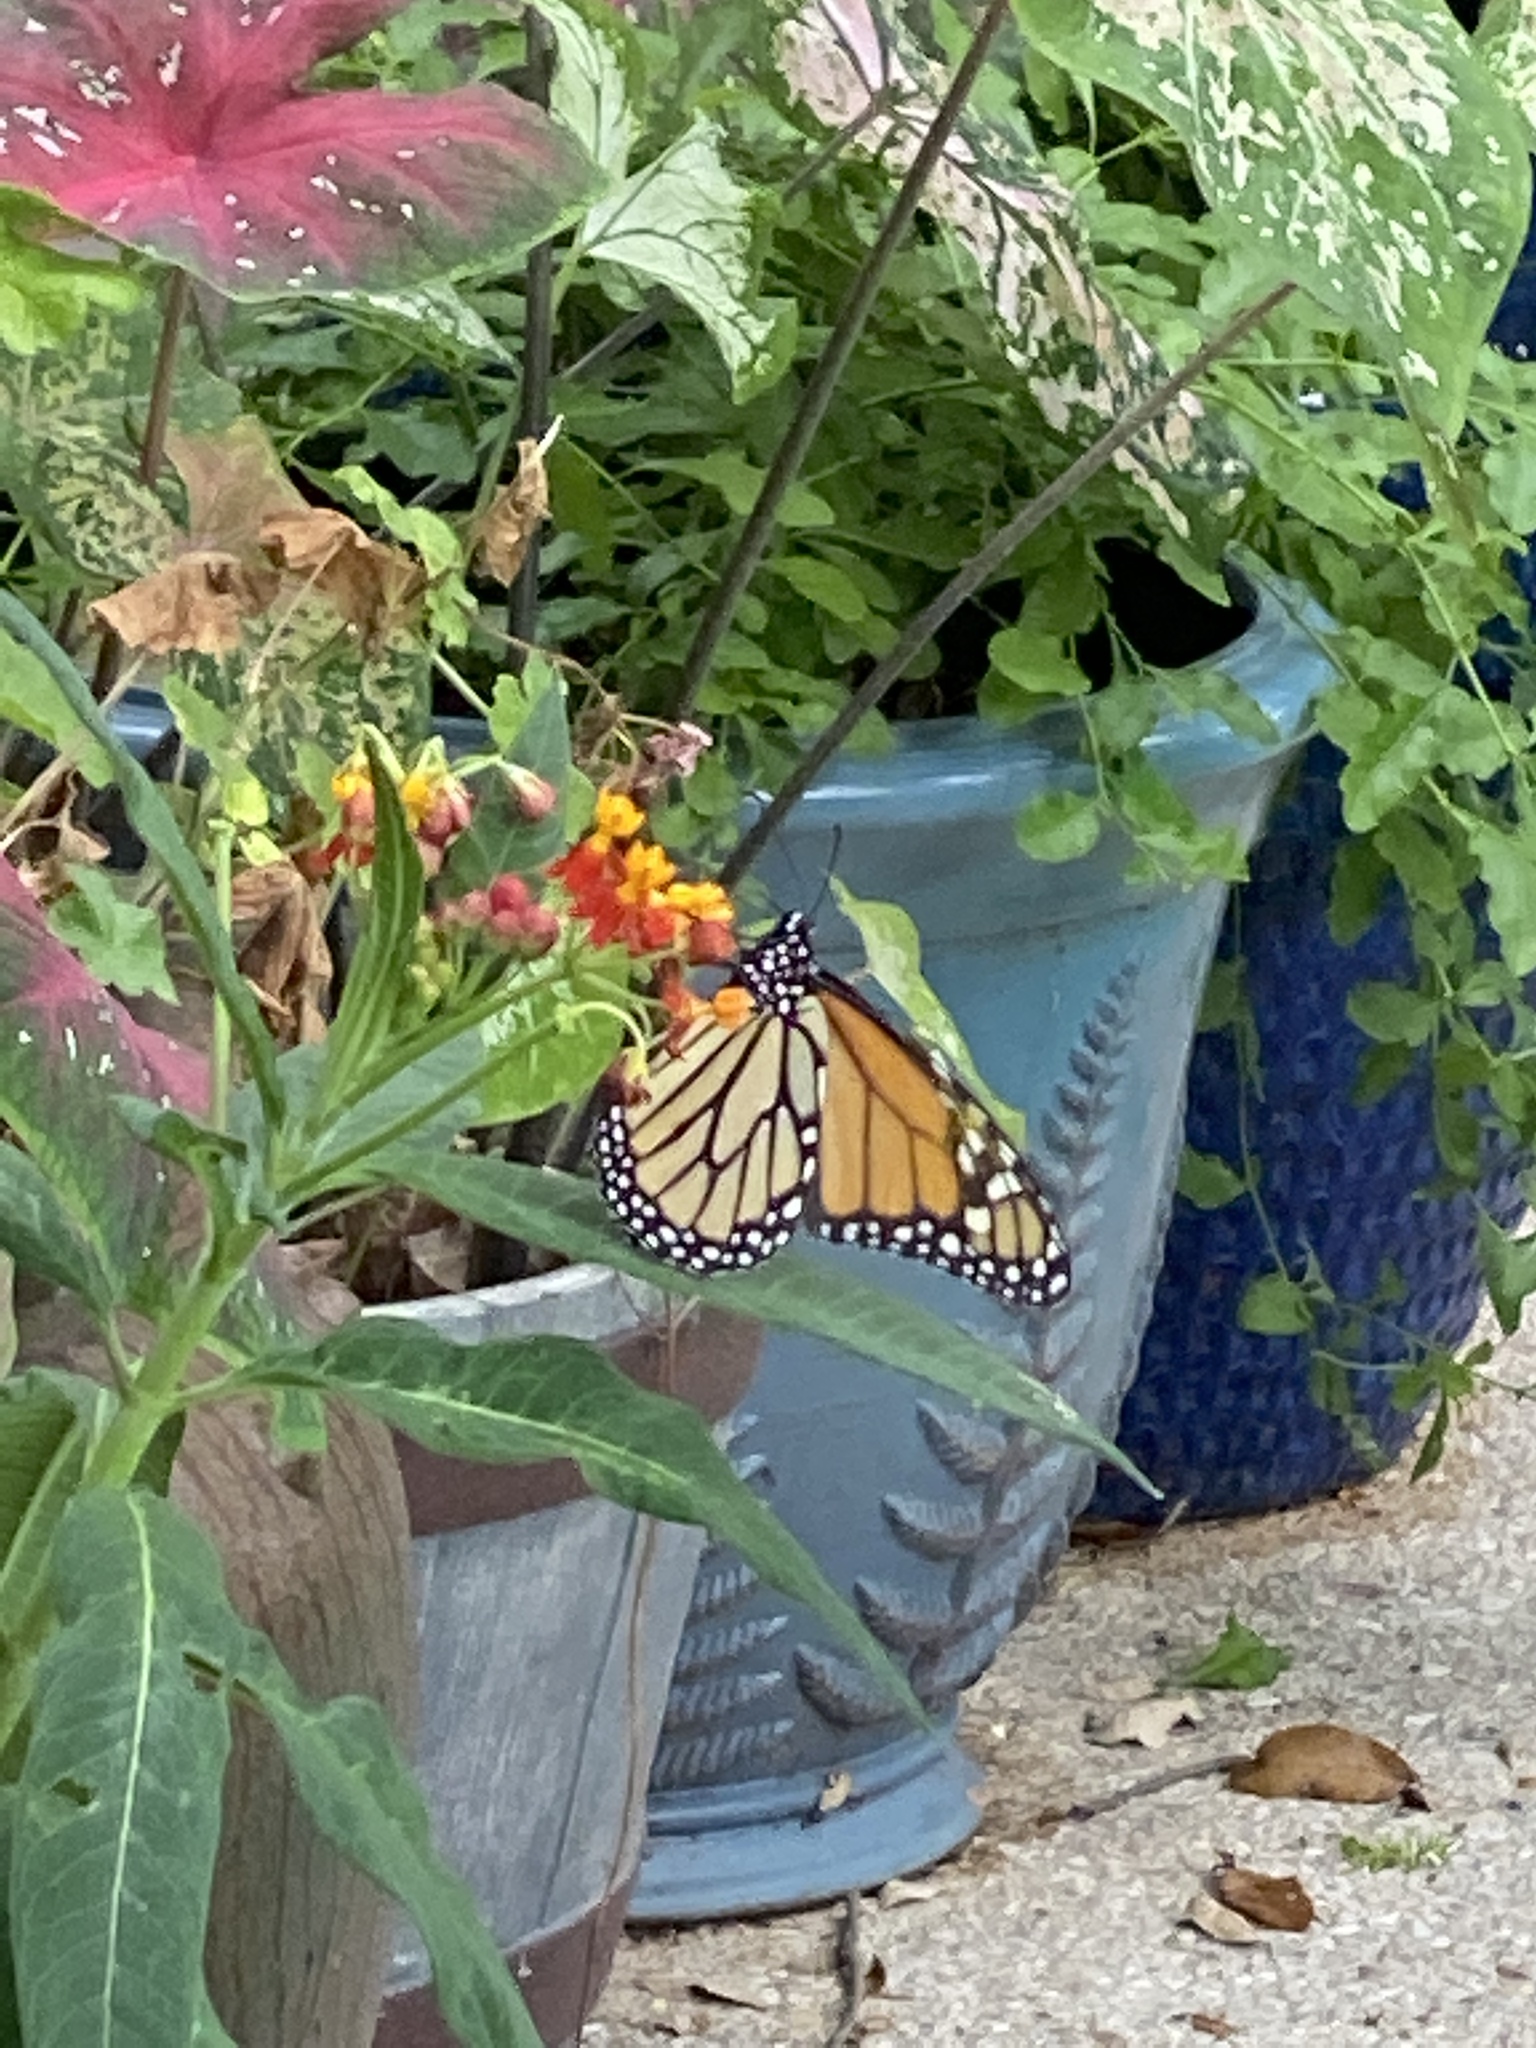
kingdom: Animalia
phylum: Arthropoda
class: Insecta
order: Lepidoptera
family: Nymphalidae
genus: Danaus
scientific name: Danaus plexippus
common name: Monarch
